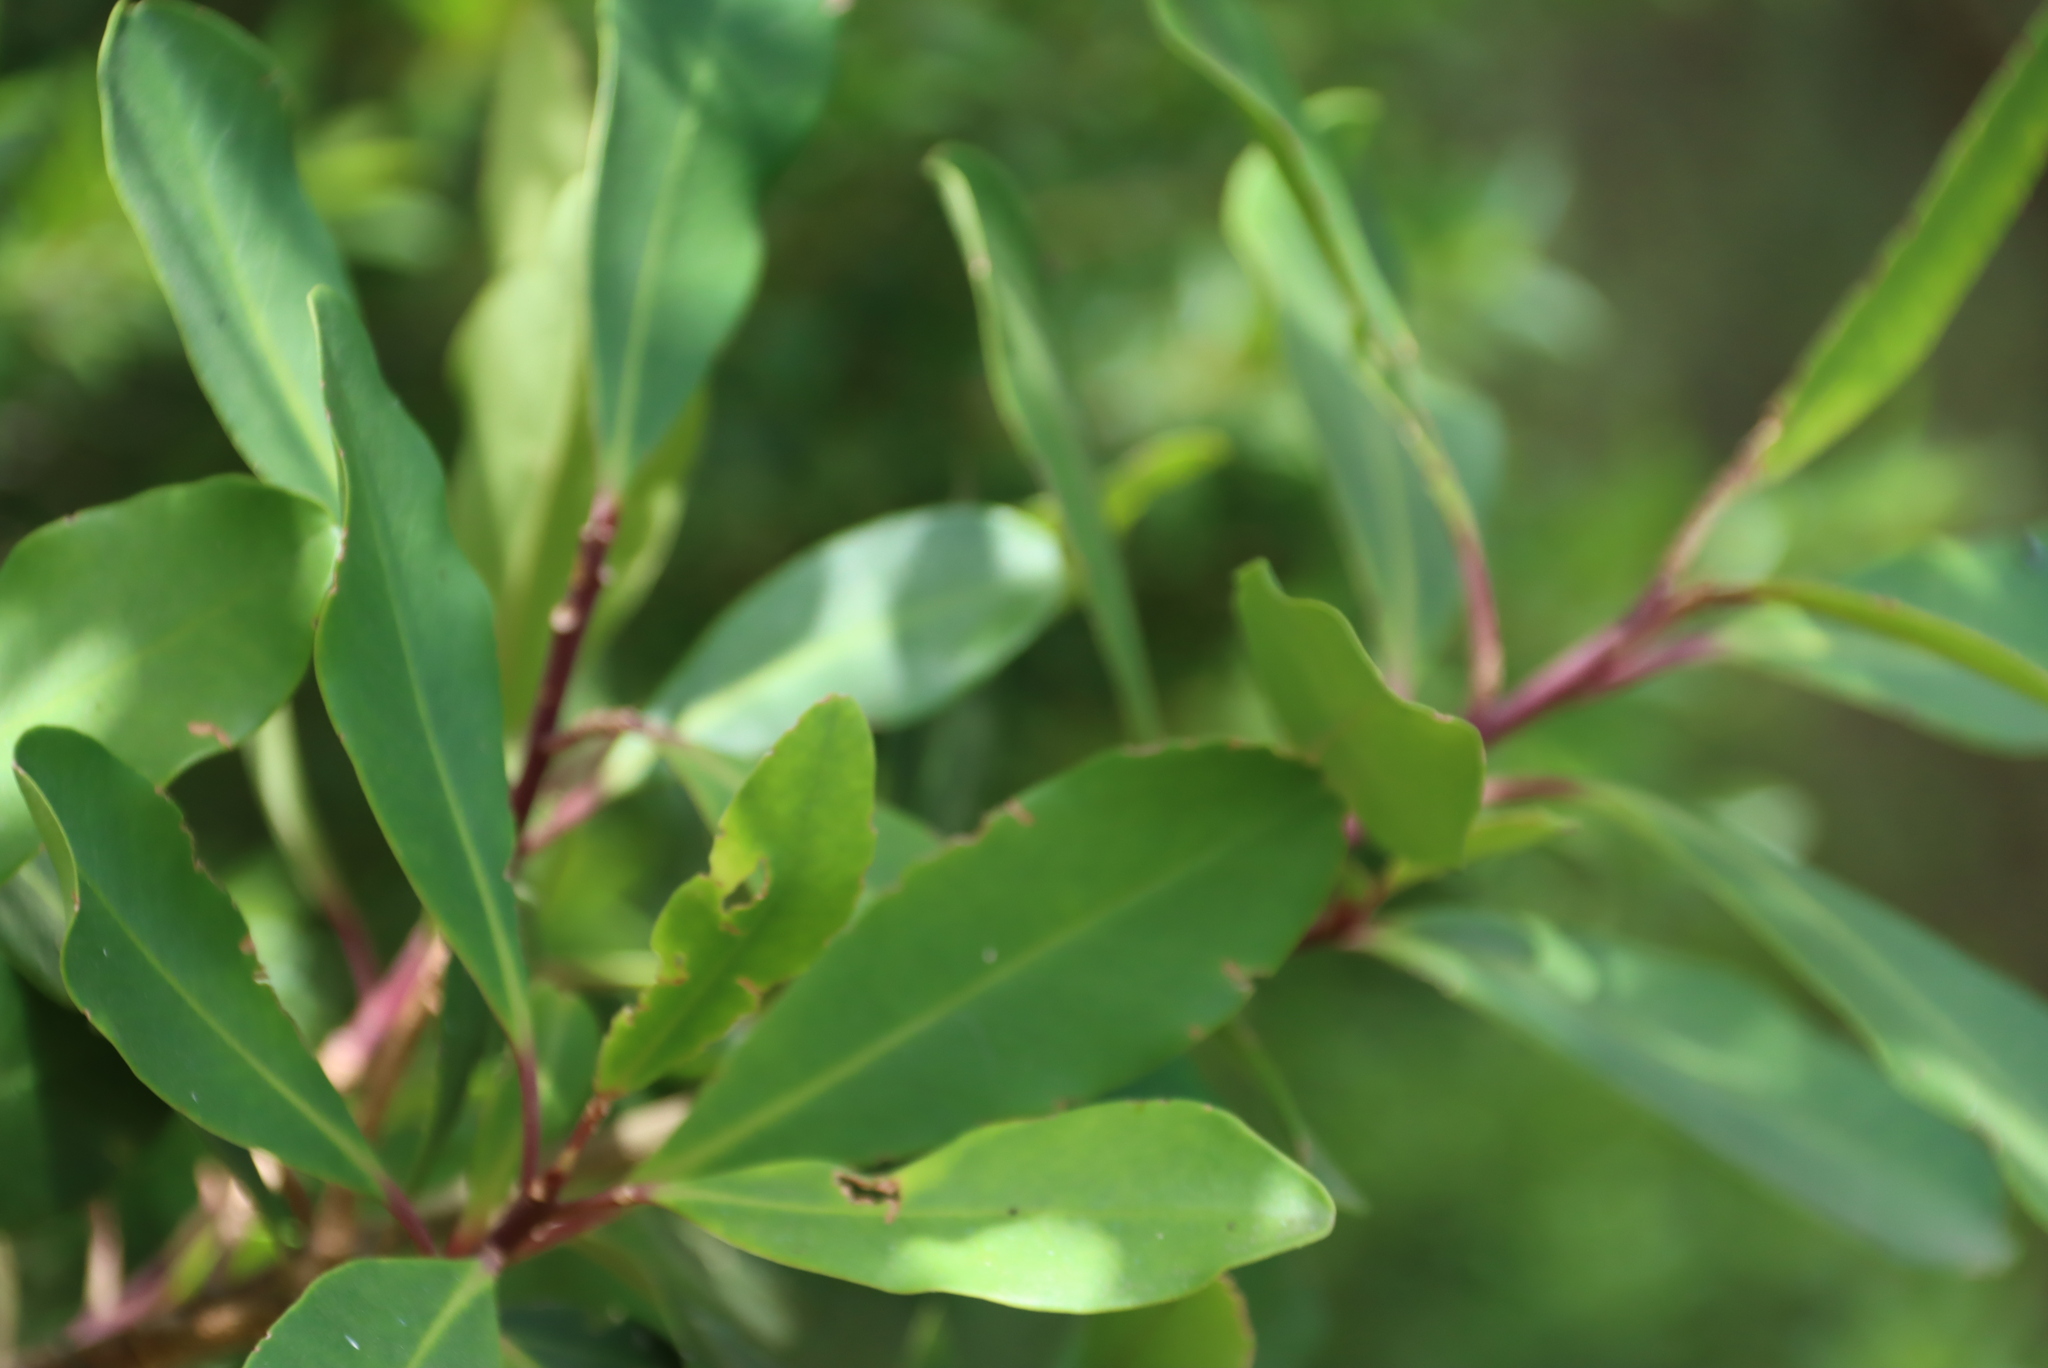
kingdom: Plantae
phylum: Tracheophyta
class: Magnoliopsida
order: Ericales
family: Primulaceae
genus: Myrsine
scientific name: Myrsine melanophloeos
